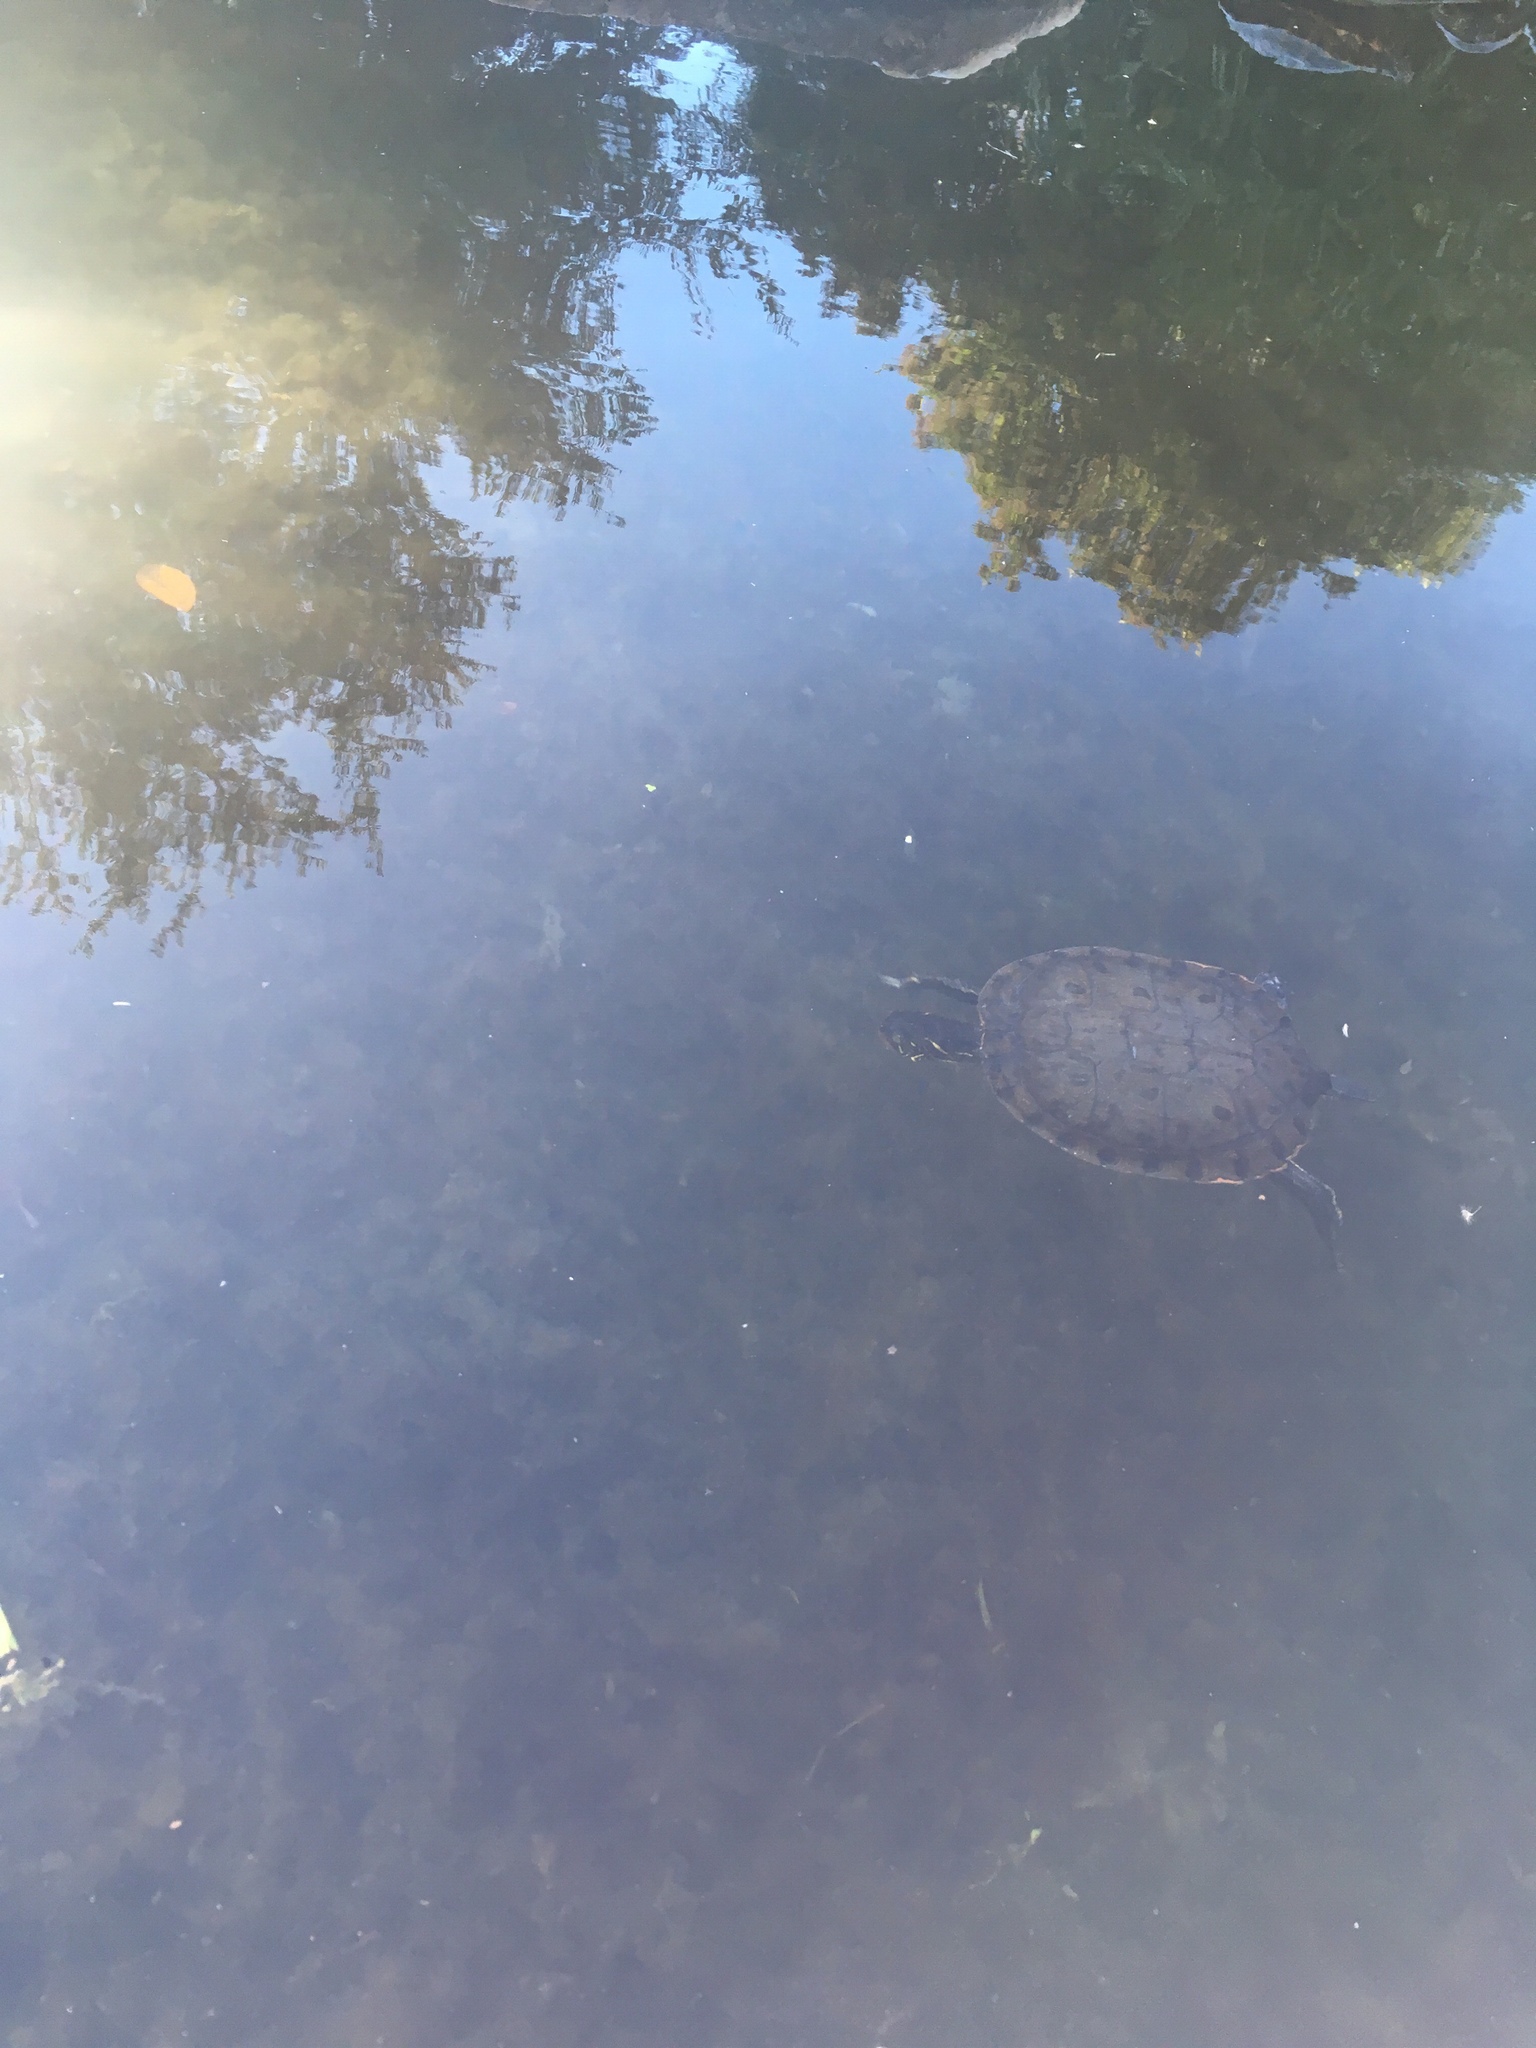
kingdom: Animalia
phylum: Chordata
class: Testudines
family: Emydidae
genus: Pseudemys
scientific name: Pseudemys texana
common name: Texas river cooter
